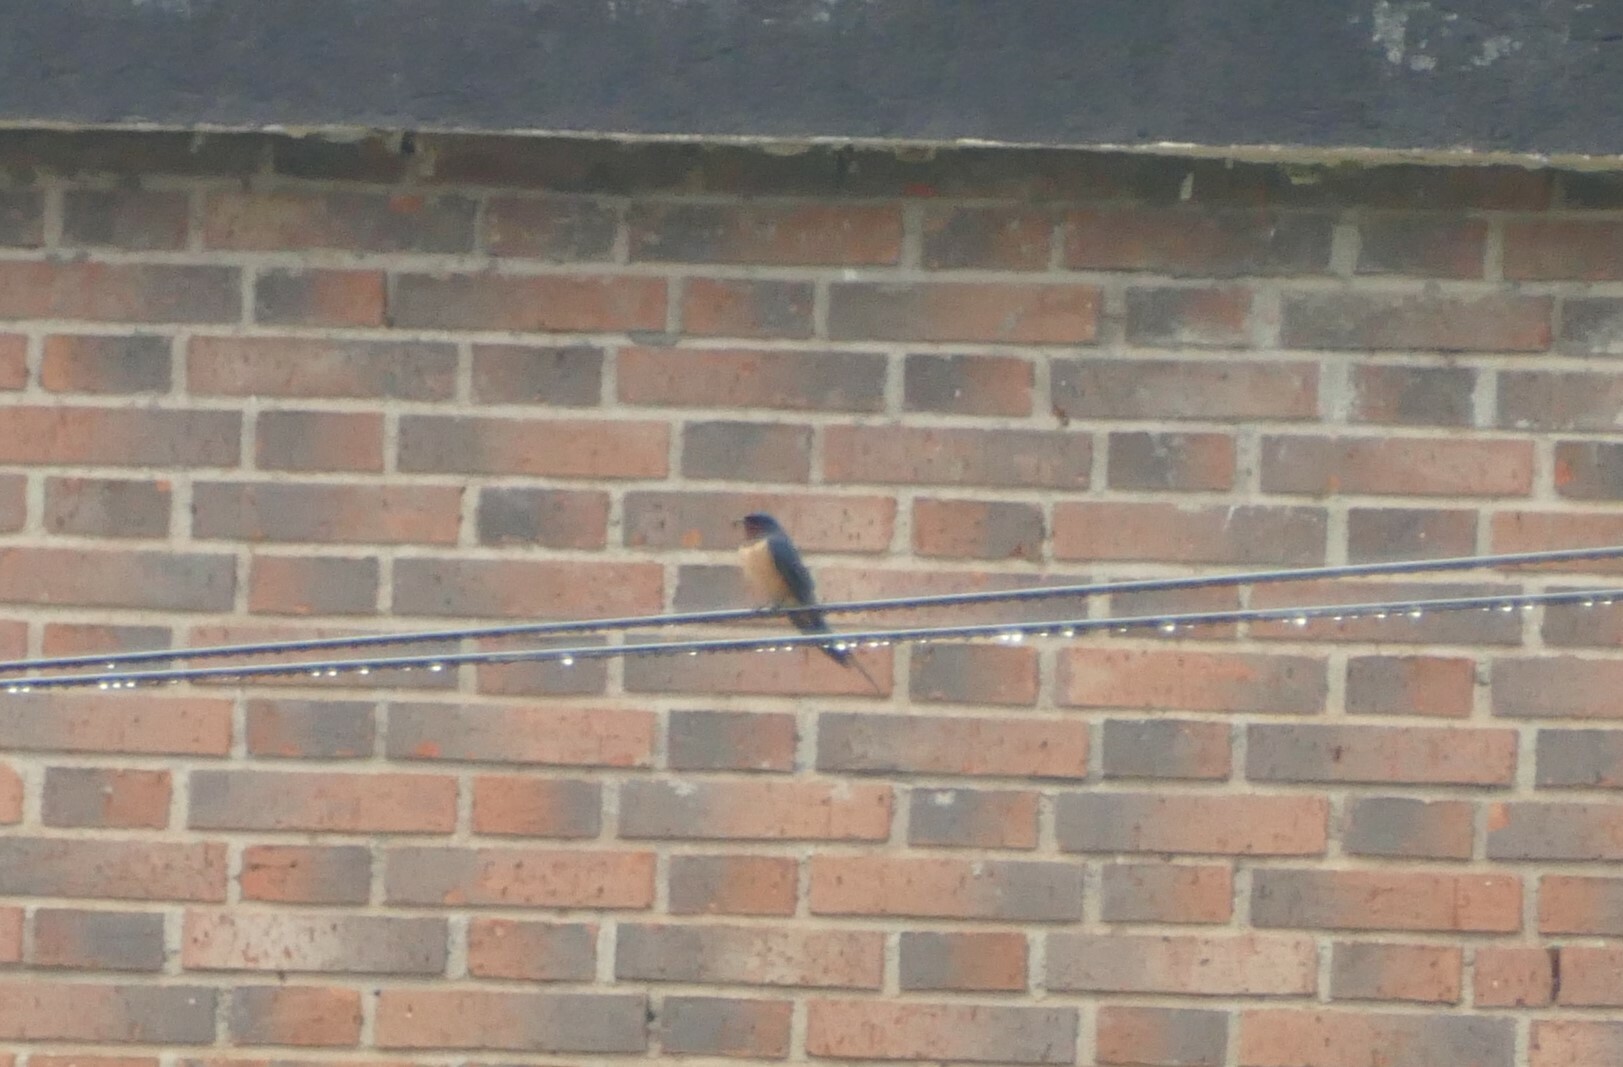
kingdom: Animalia
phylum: Chordata
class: Aves
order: Passeriformes
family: Hirundinidae
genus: Hirundo
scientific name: Hirundo rustica
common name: Barn swallow
